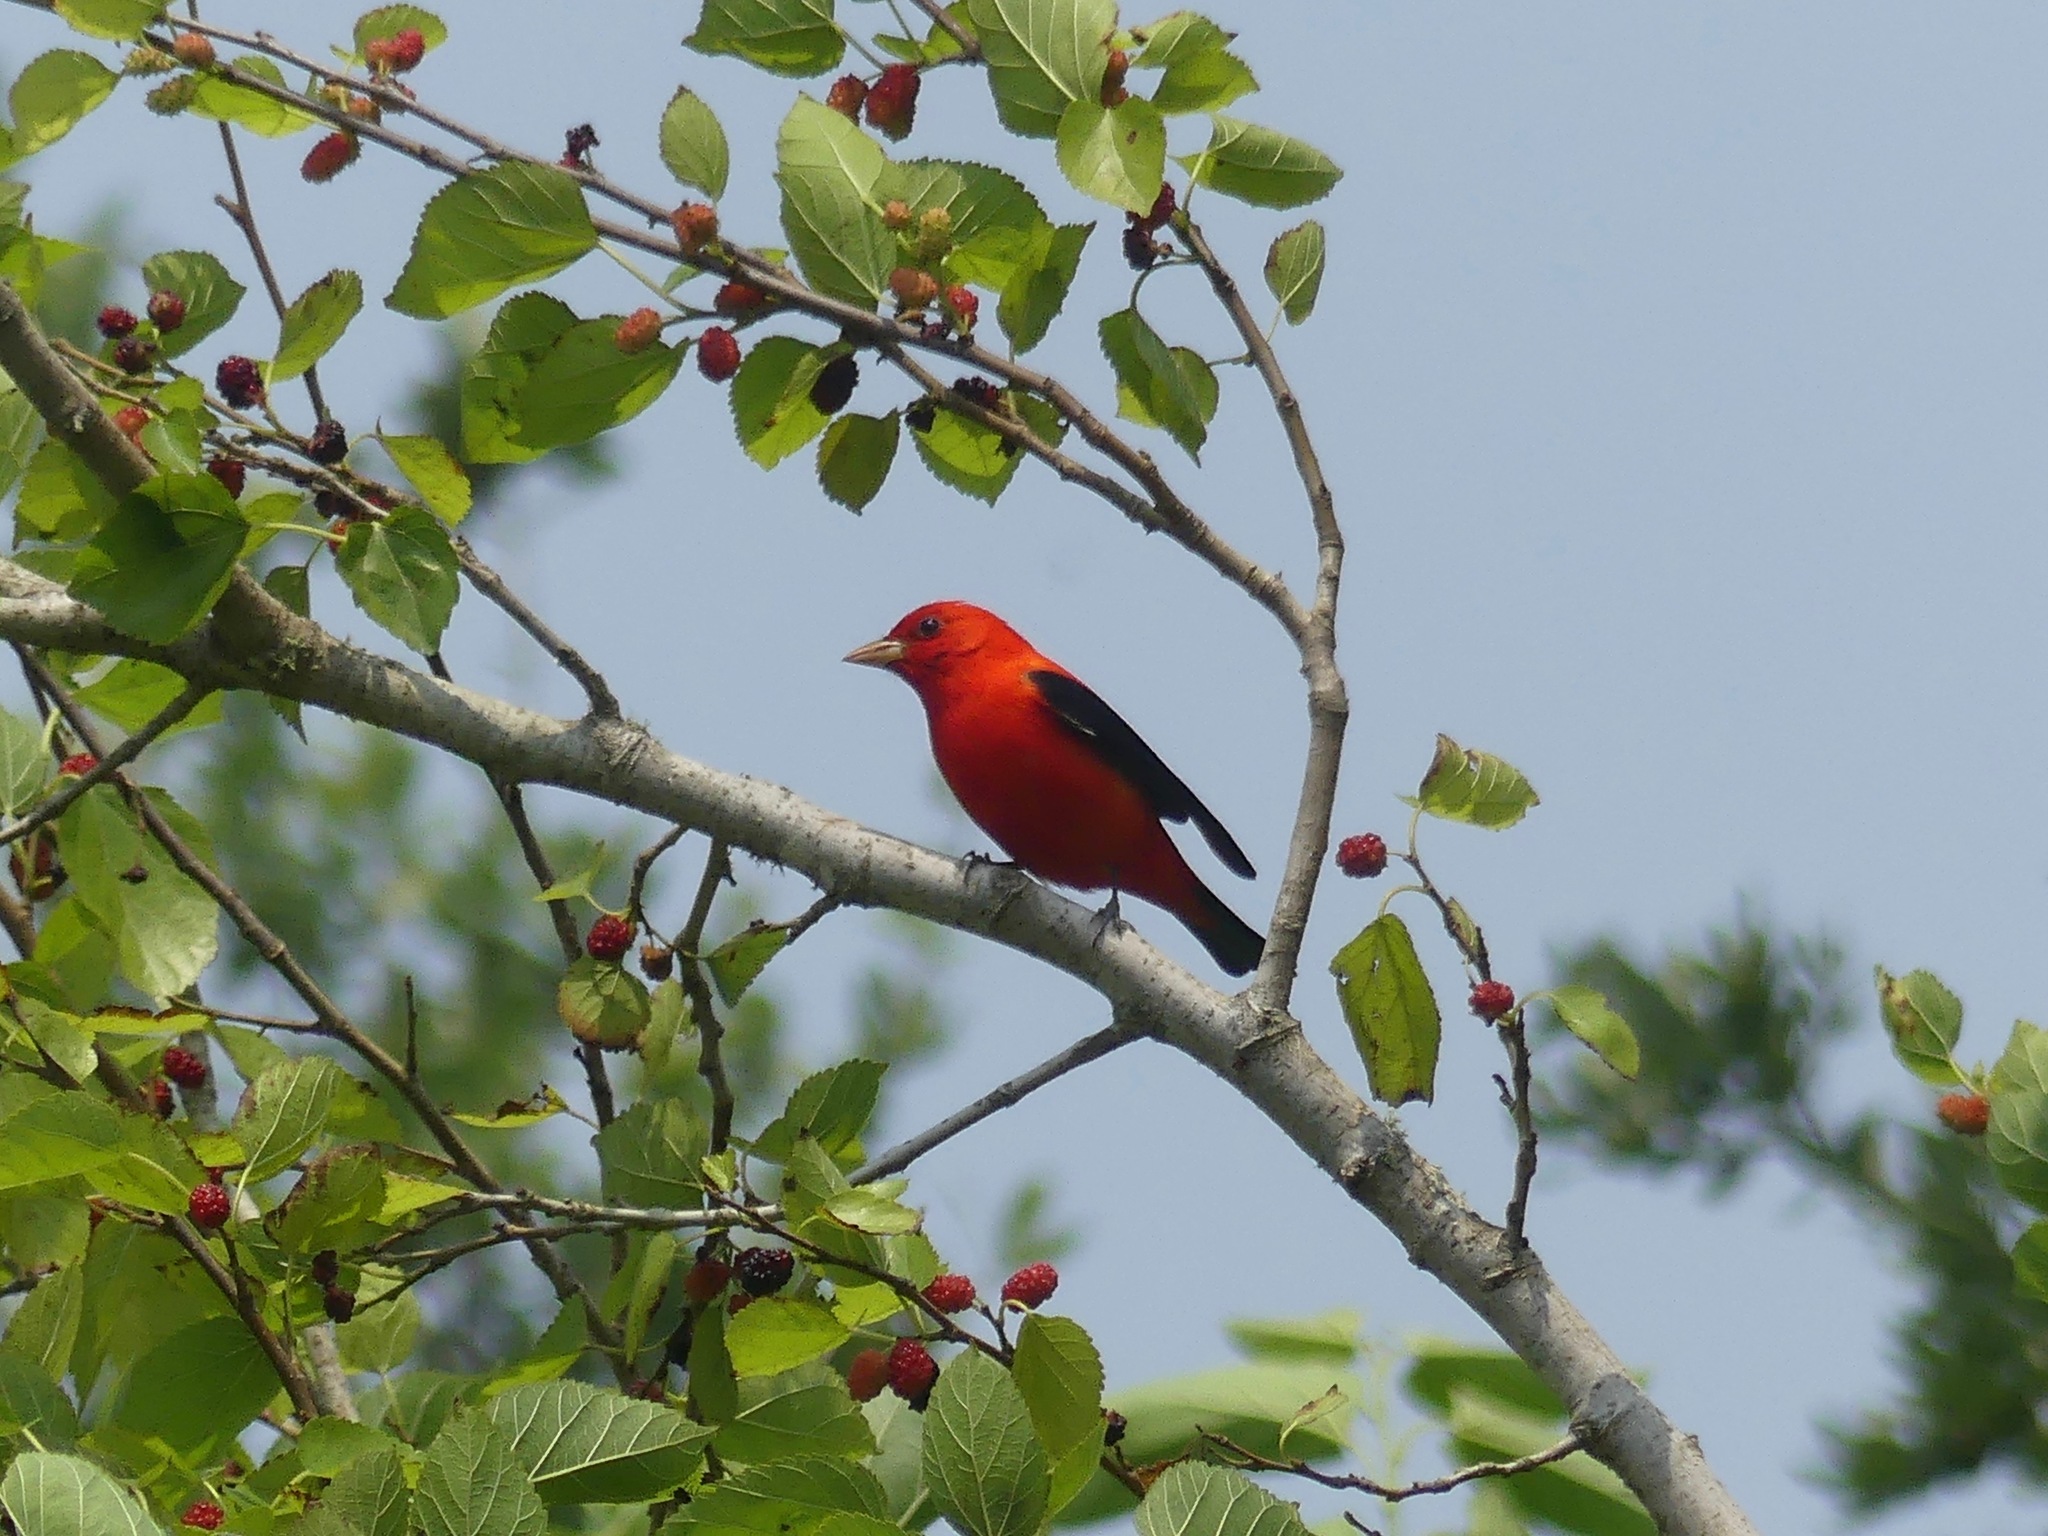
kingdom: Animalia
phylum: Chordata
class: Aves
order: Passeriformes
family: Cardinalidae
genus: Piranga
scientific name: Piranga olivacea
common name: Scarlet tanager
